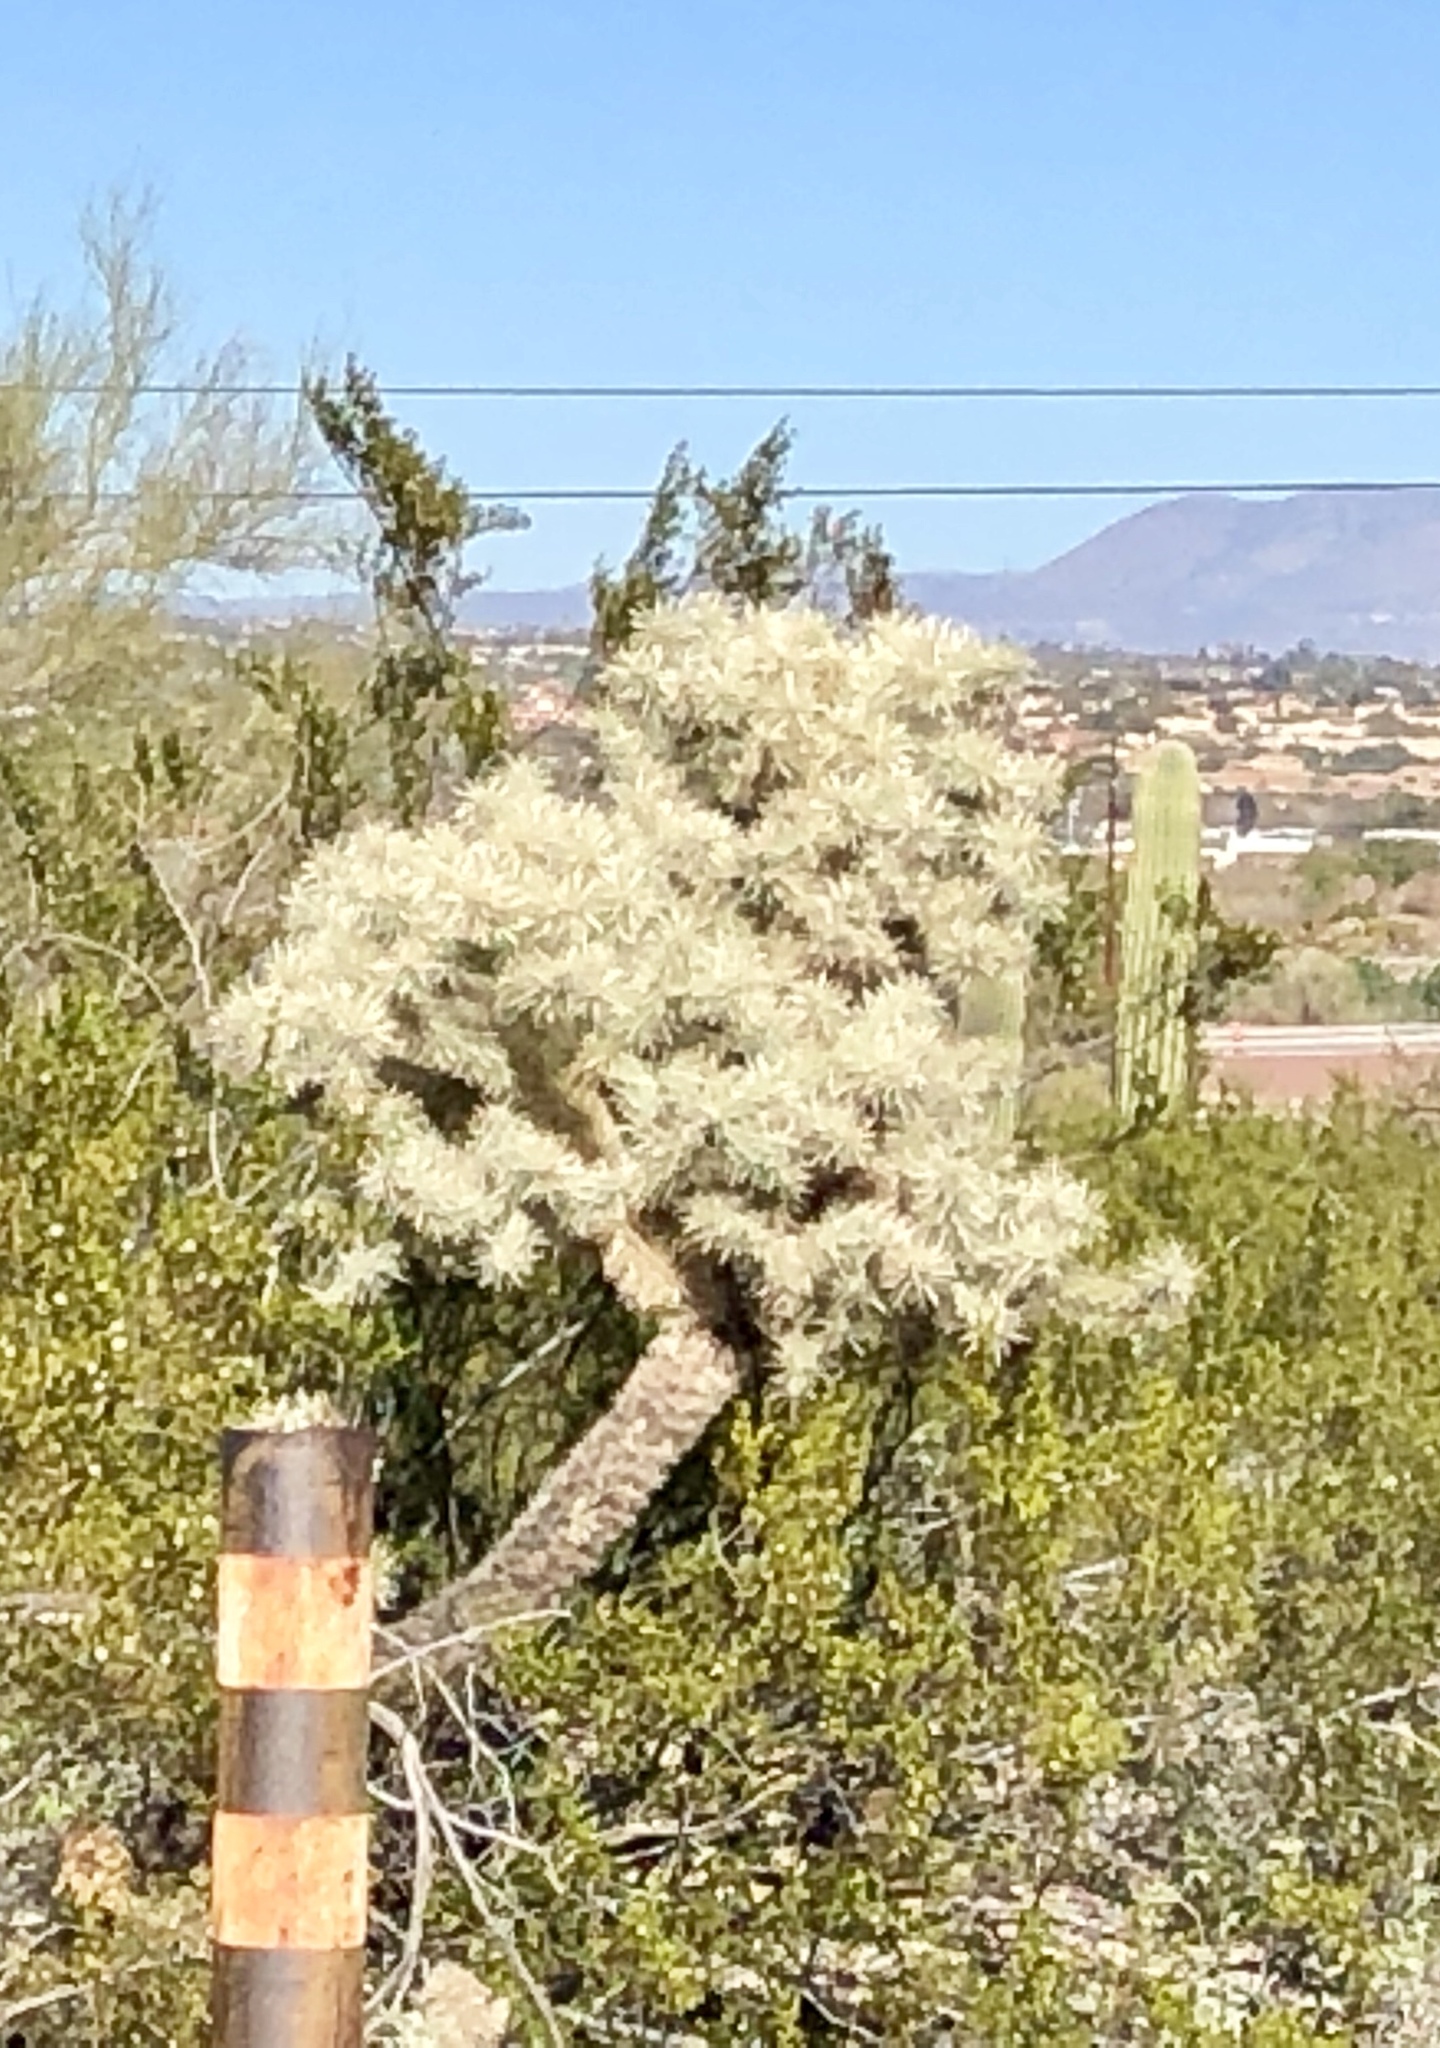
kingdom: Plantae
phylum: Tracheophyta
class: Magnoliopsida
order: Caryophyllales
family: Cactaceae
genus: Cylindropuntia
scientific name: Cylindropuntia fulgida
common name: Jumping cholla
